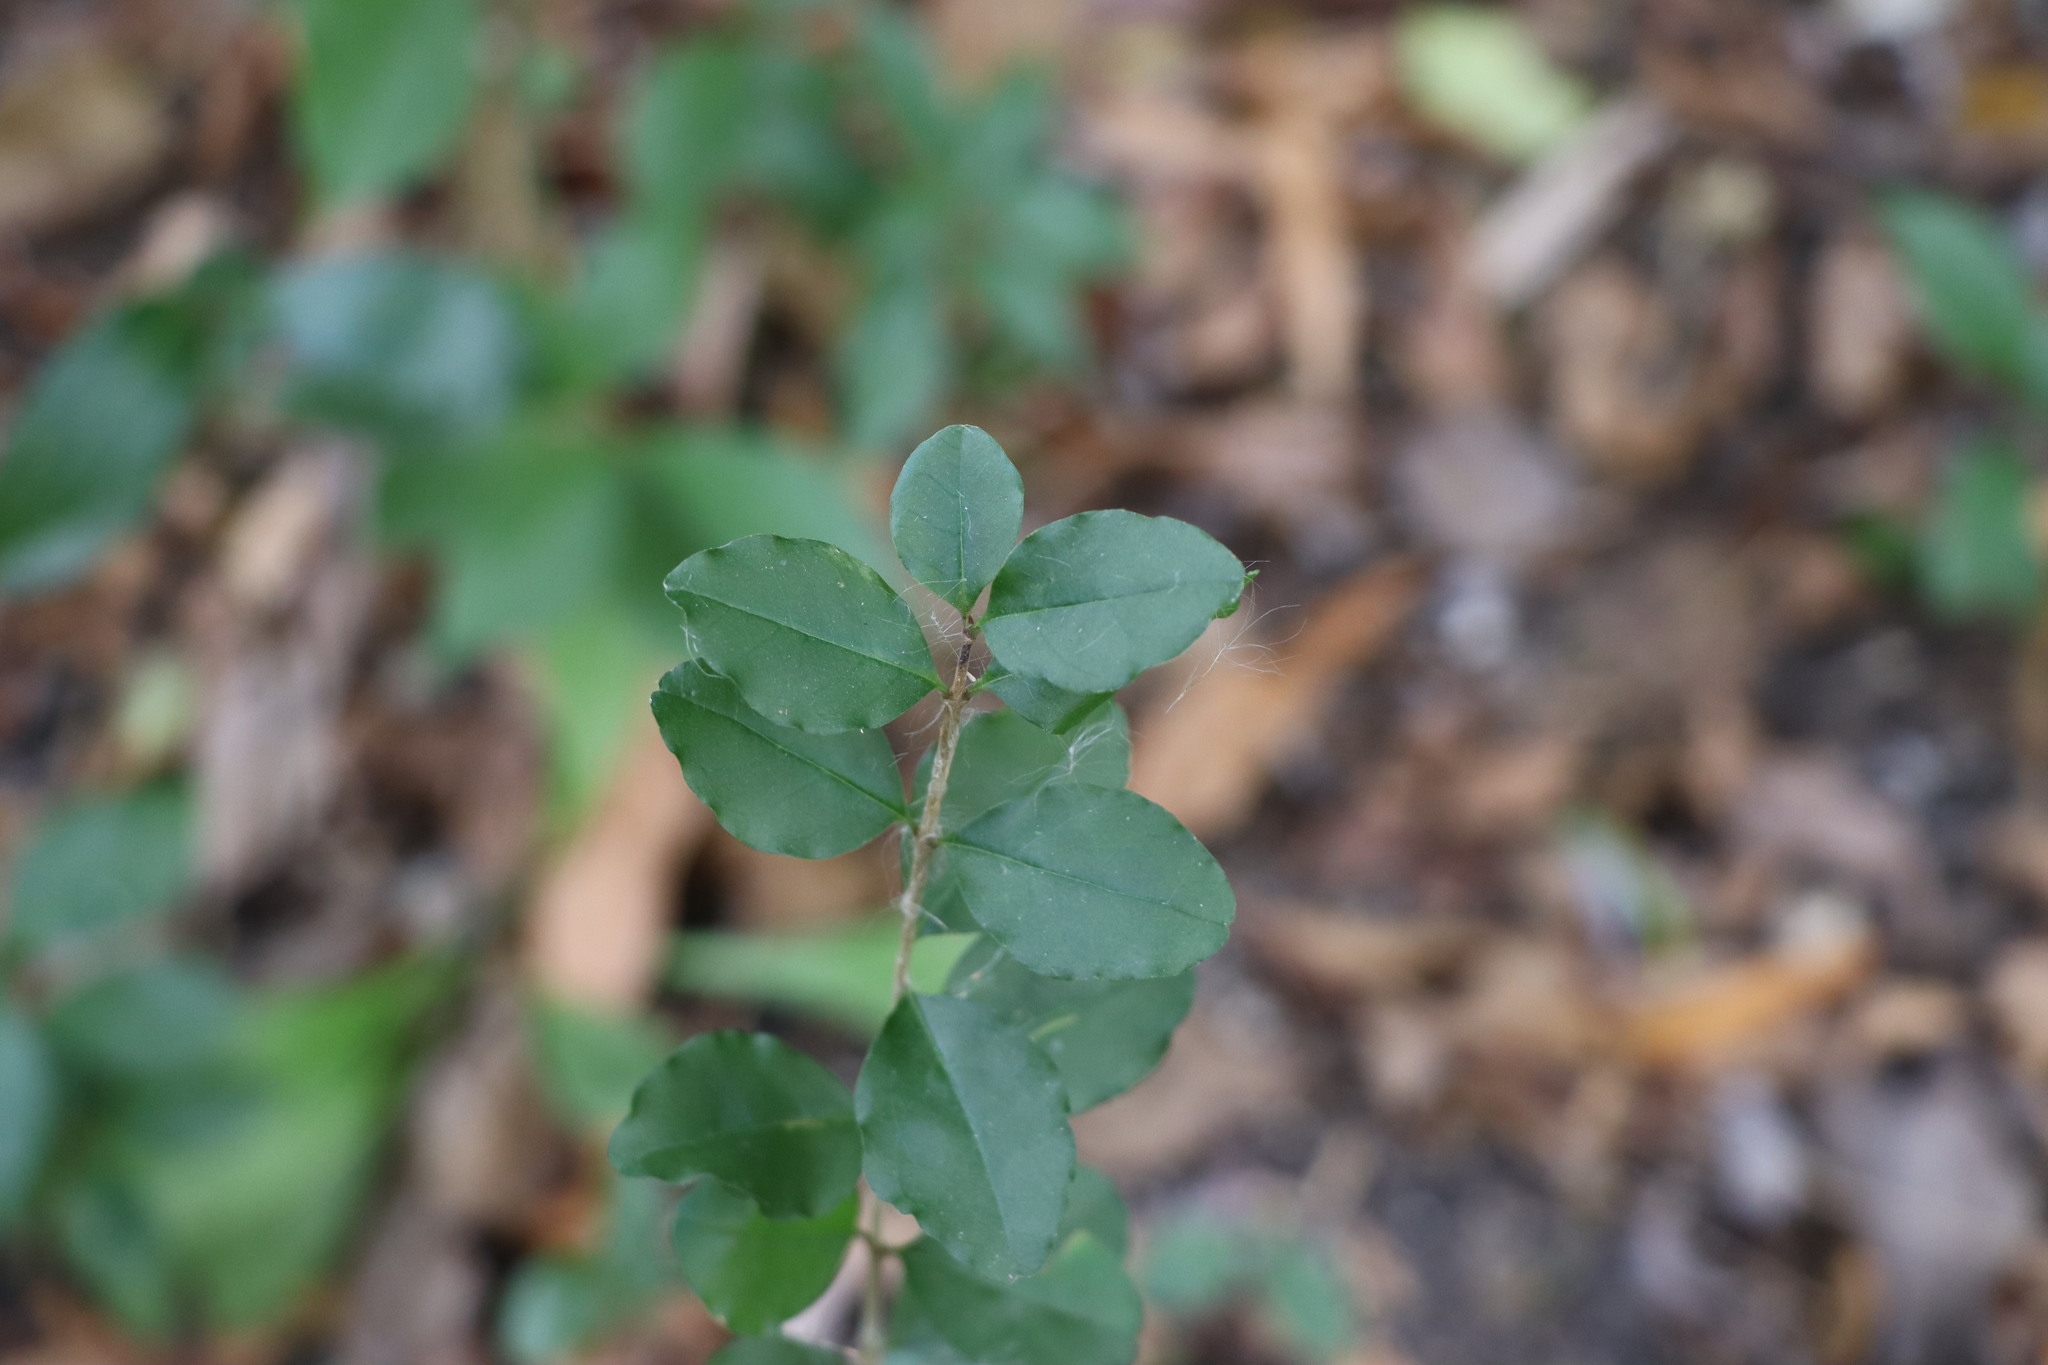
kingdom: Plantae
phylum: Tracheophyta
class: Magnoliopsida
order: Lamiales
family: Oleaceae
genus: Ligustrum
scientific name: Ligustrum sinense
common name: Chinese privet
